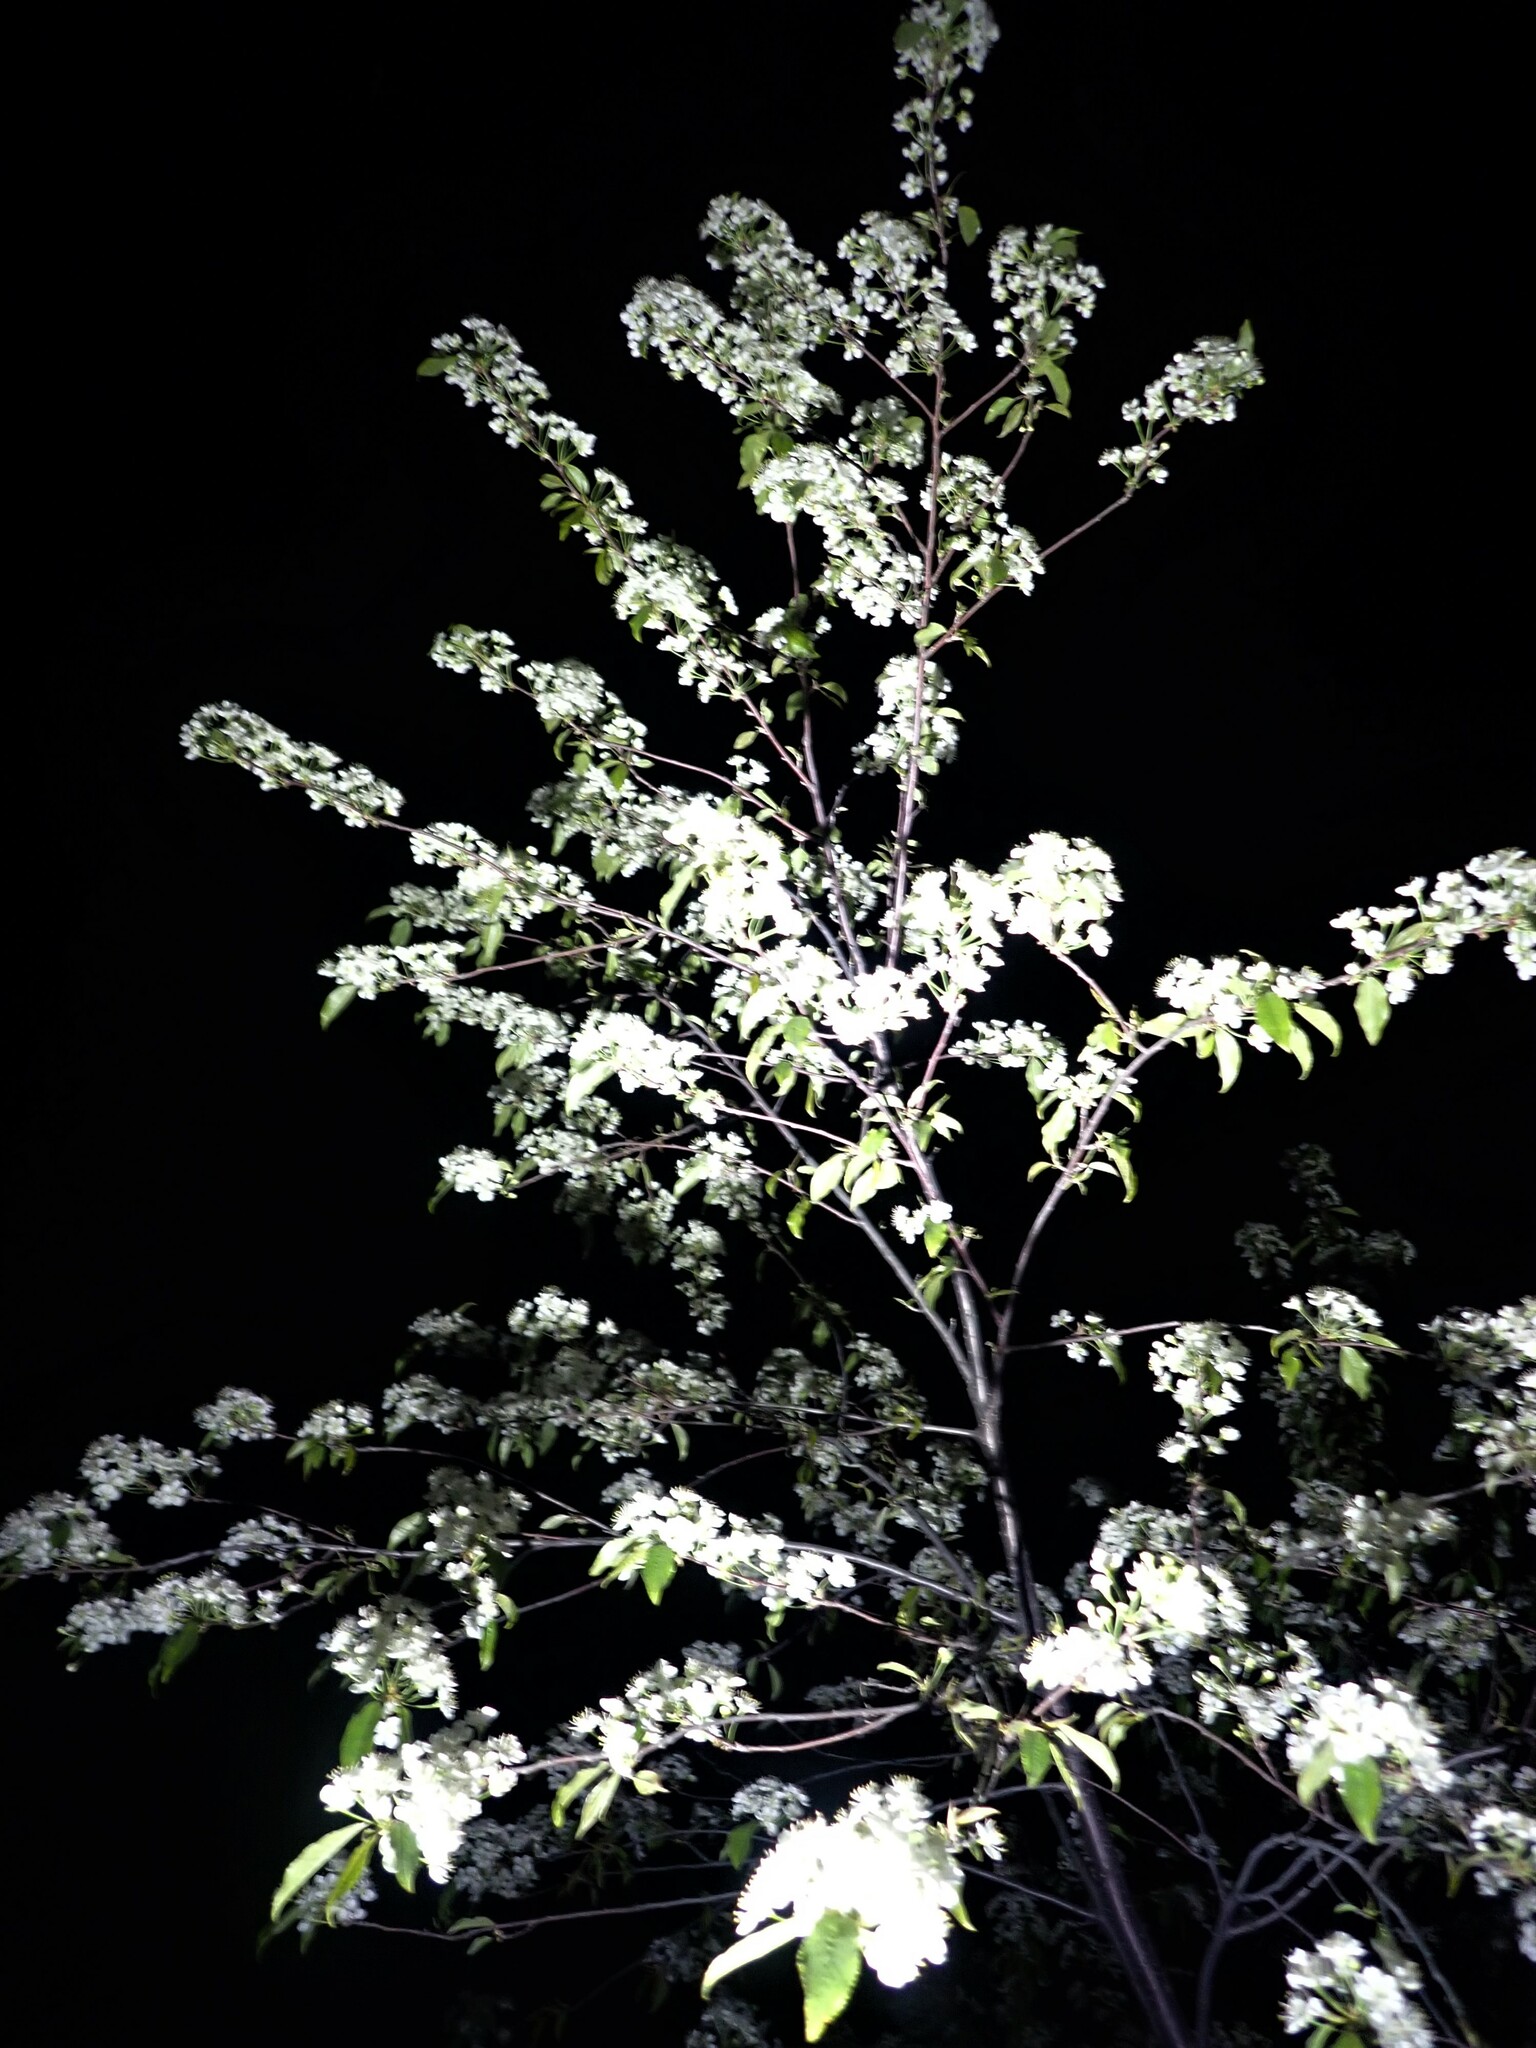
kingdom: Plantae
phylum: Tracheophyta
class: Magnoliopsida
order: Rosales
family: Rosaceae
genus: Prunus
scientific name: Prunus pensylvanica
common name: Pin cherry
